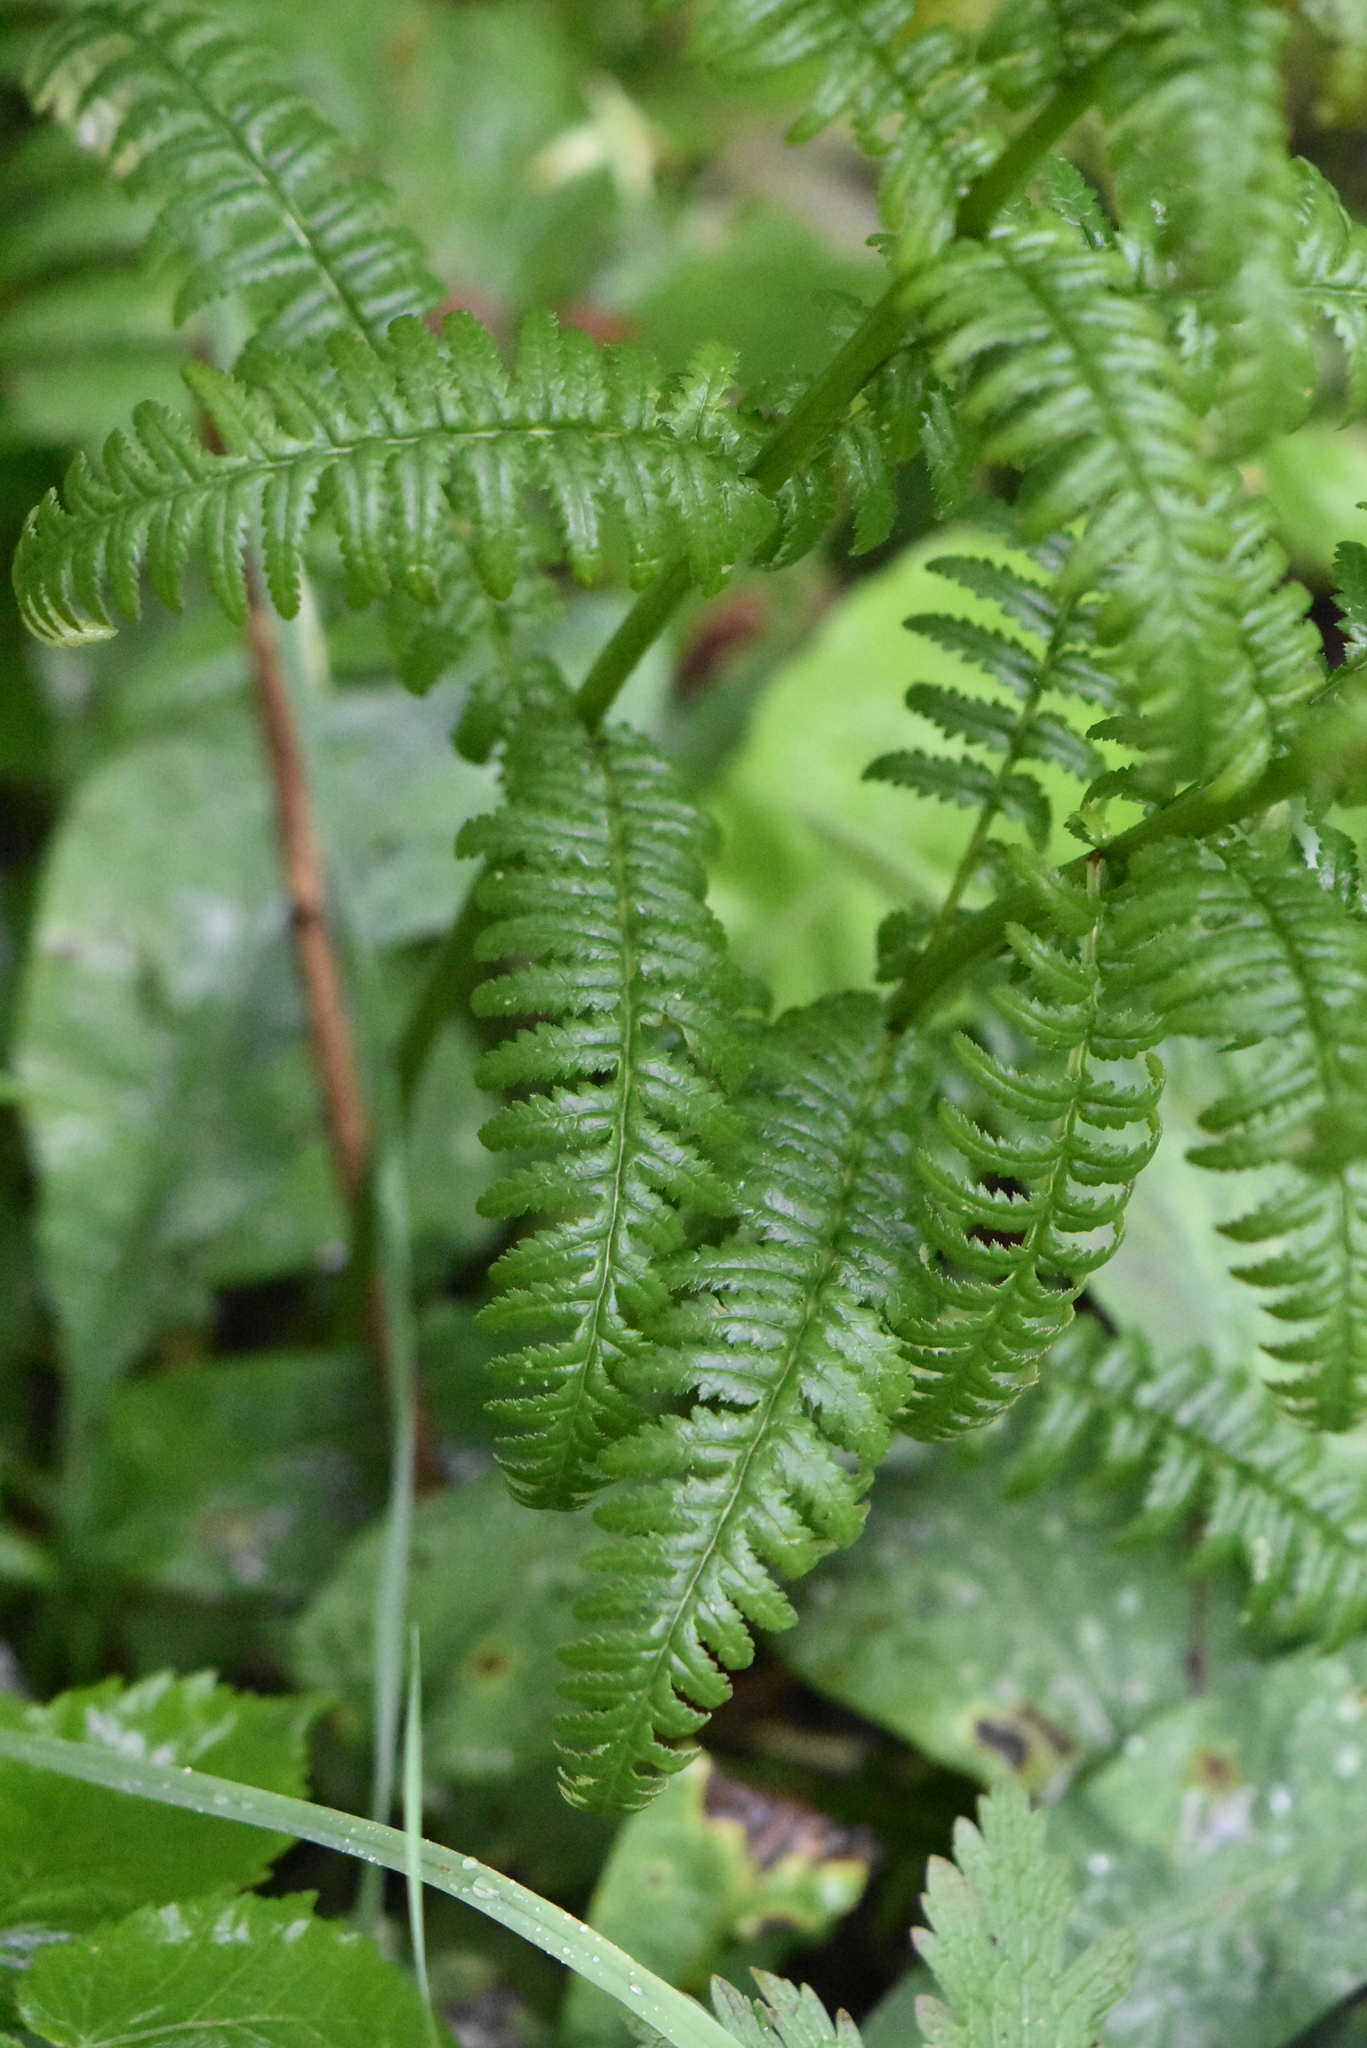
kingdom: Plantae
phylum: Tracheophyta
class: Magnoliopsida
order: Lamiales
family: Orobanchaceae
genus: Pedicularis
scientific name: Pedicularis incarnata
